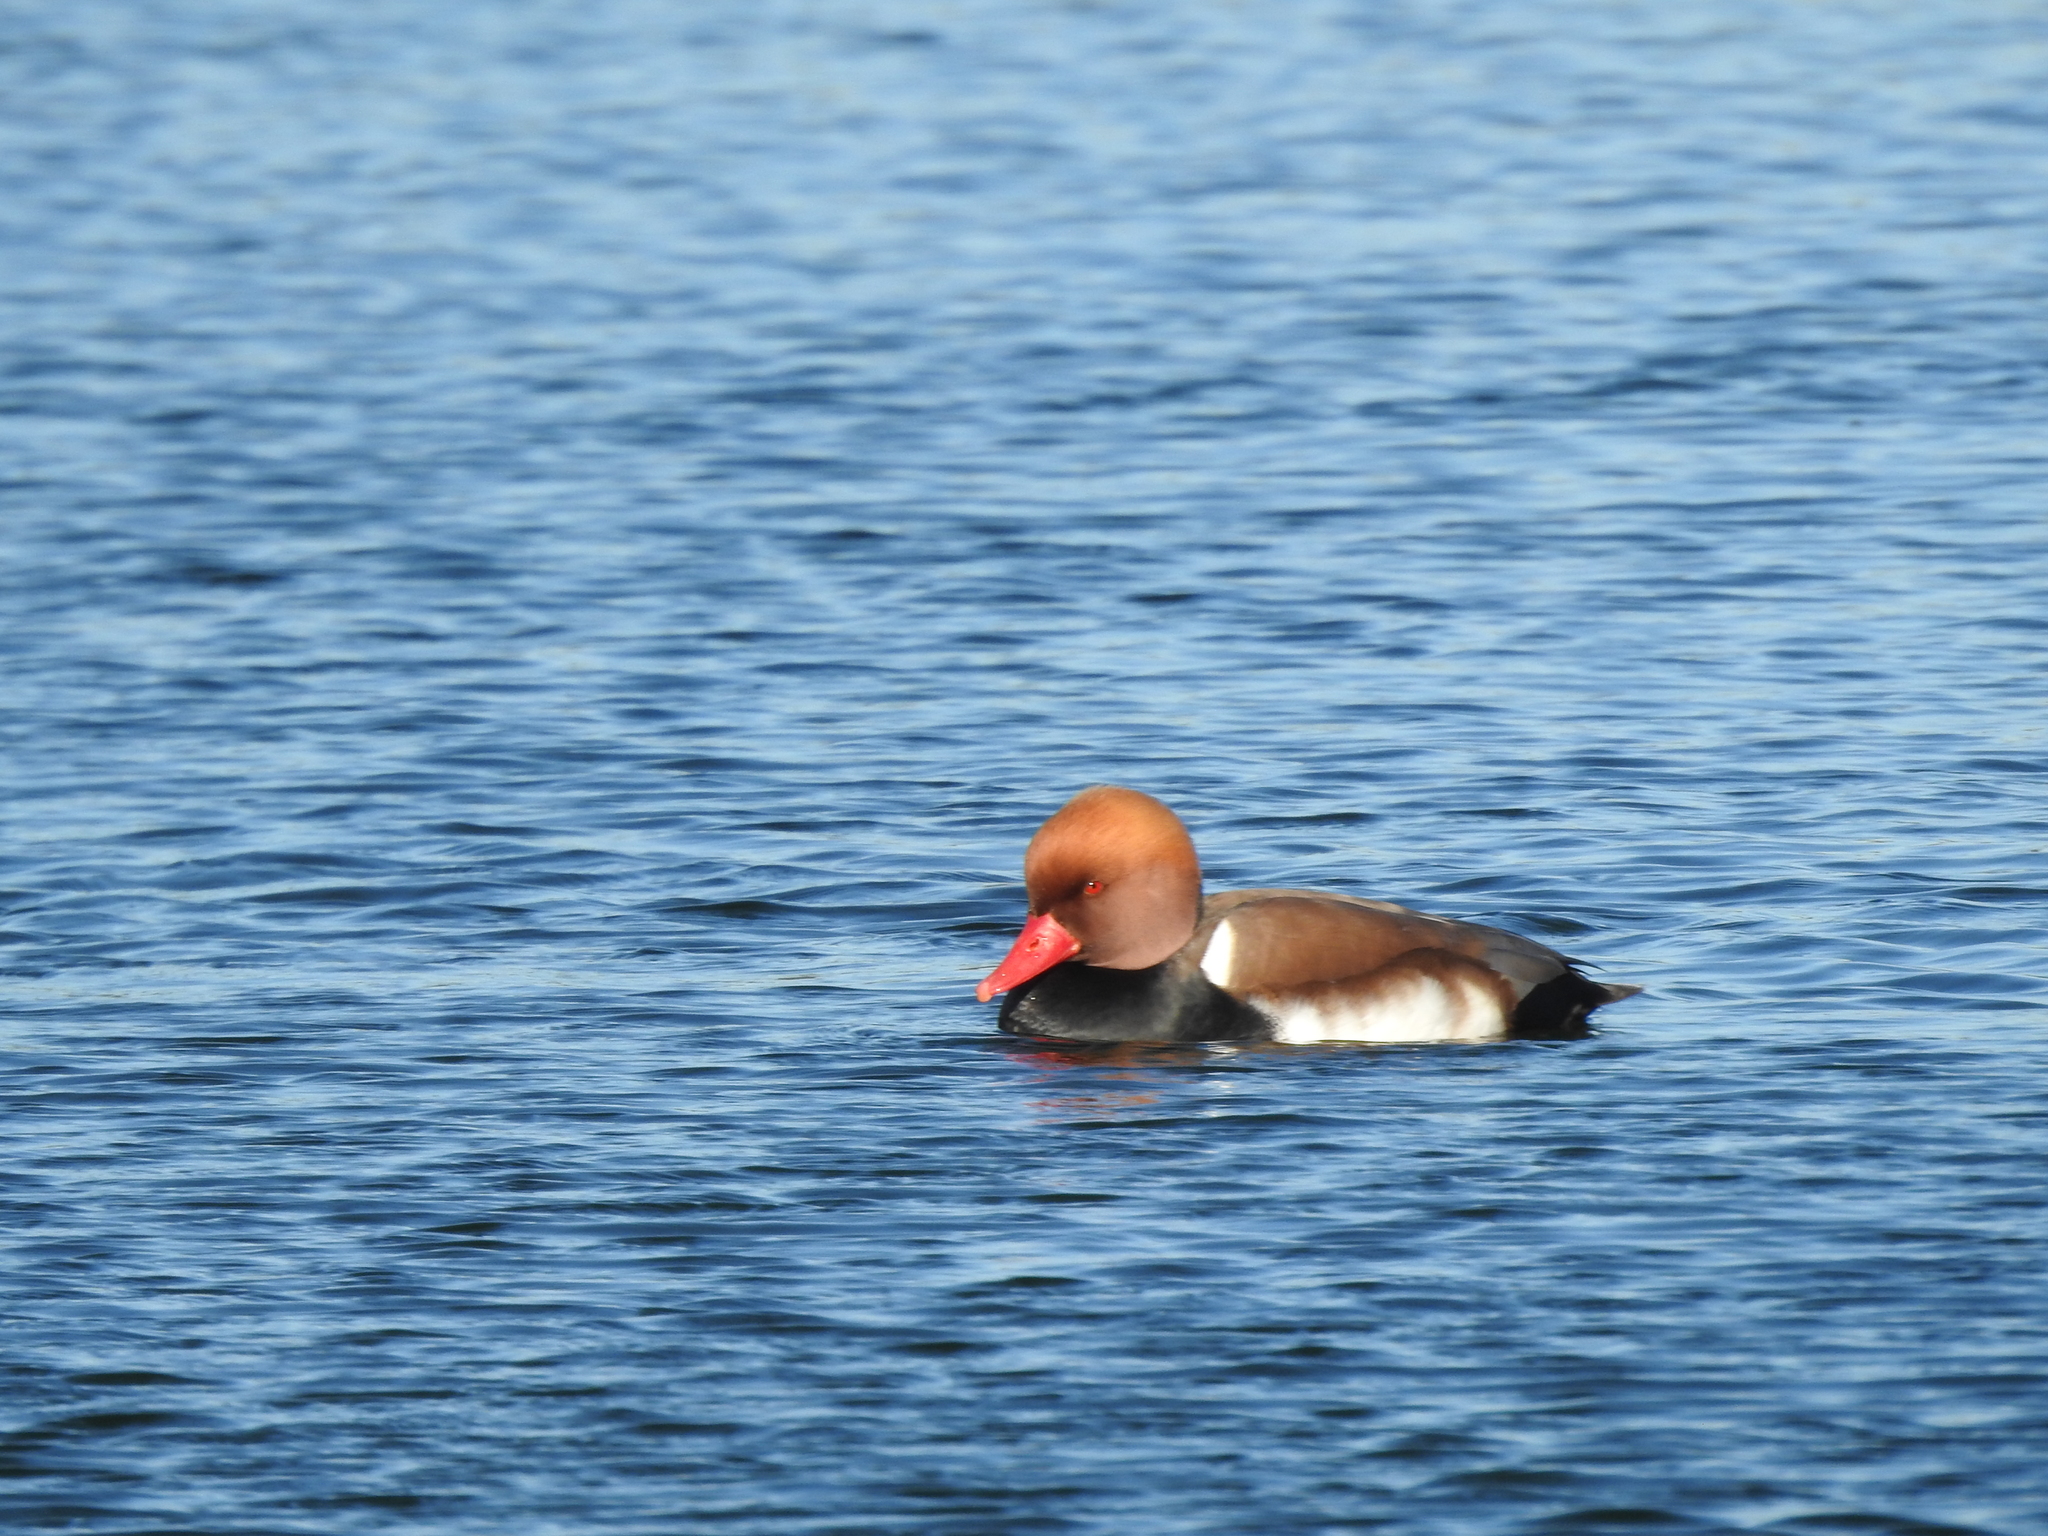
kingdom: Animalia
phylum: Chordata
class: Aves
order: Anseriformes
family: Anatidae
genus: Netta
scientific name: Netta rufina
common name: Red-crested pochard
